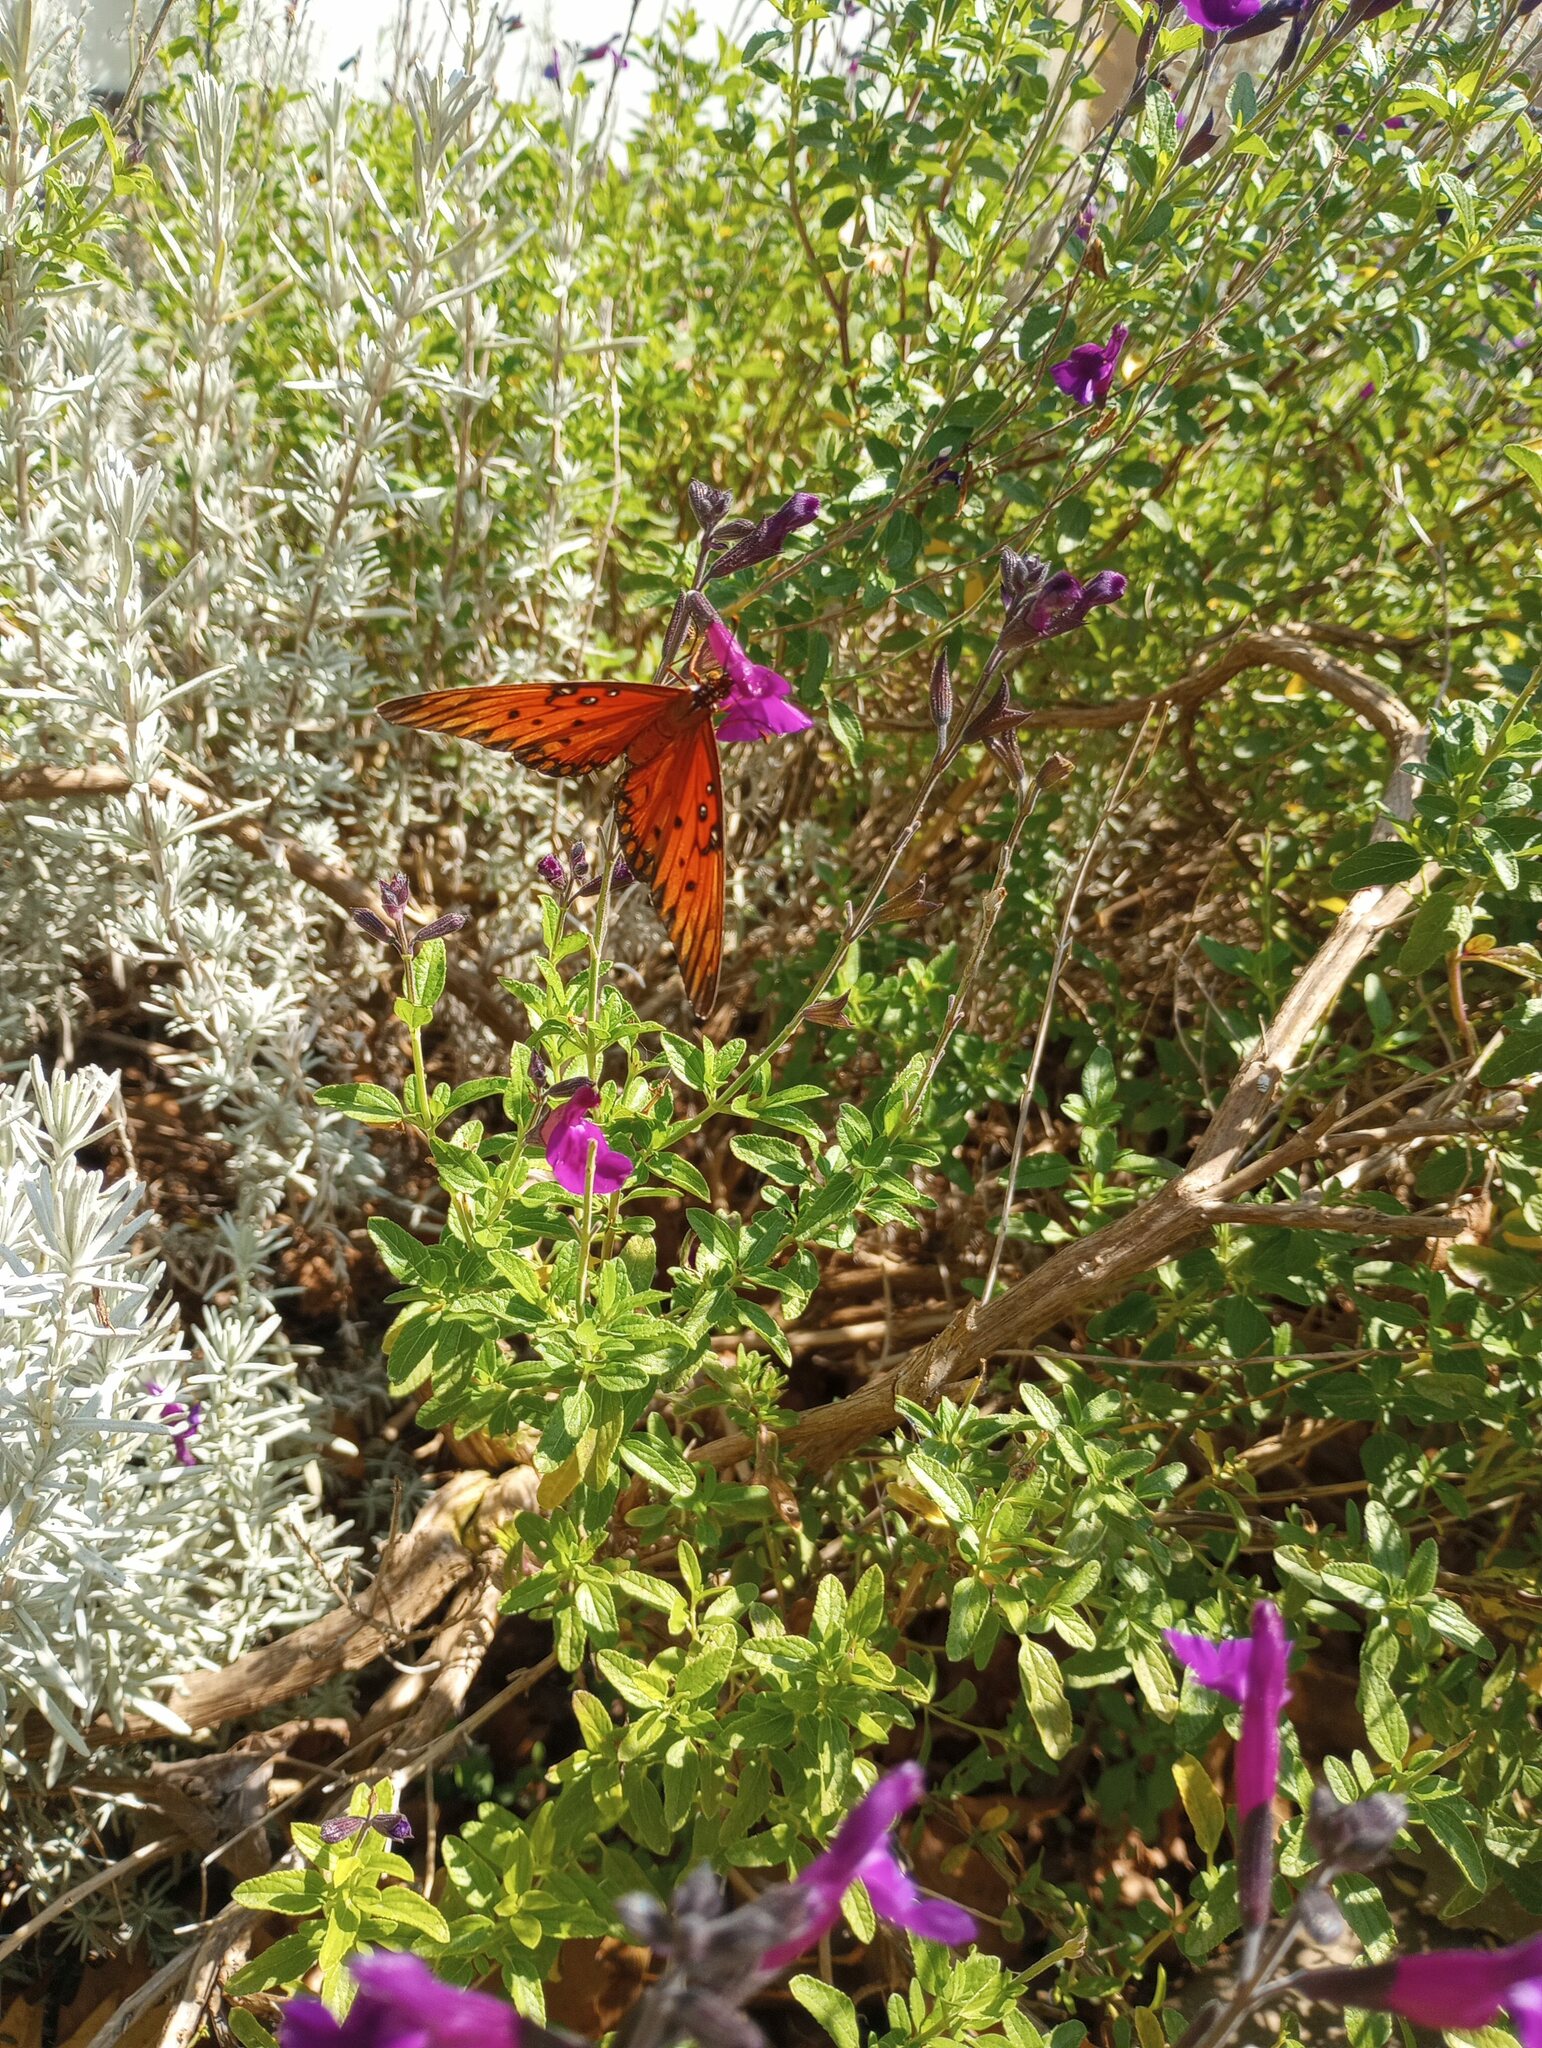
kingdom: Animalia
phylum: Arthropoda
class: Insecta
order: Lepidoptera
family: Nymphalidae
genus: Dione
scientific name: Dione vanillae
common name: Gulf fritillary
